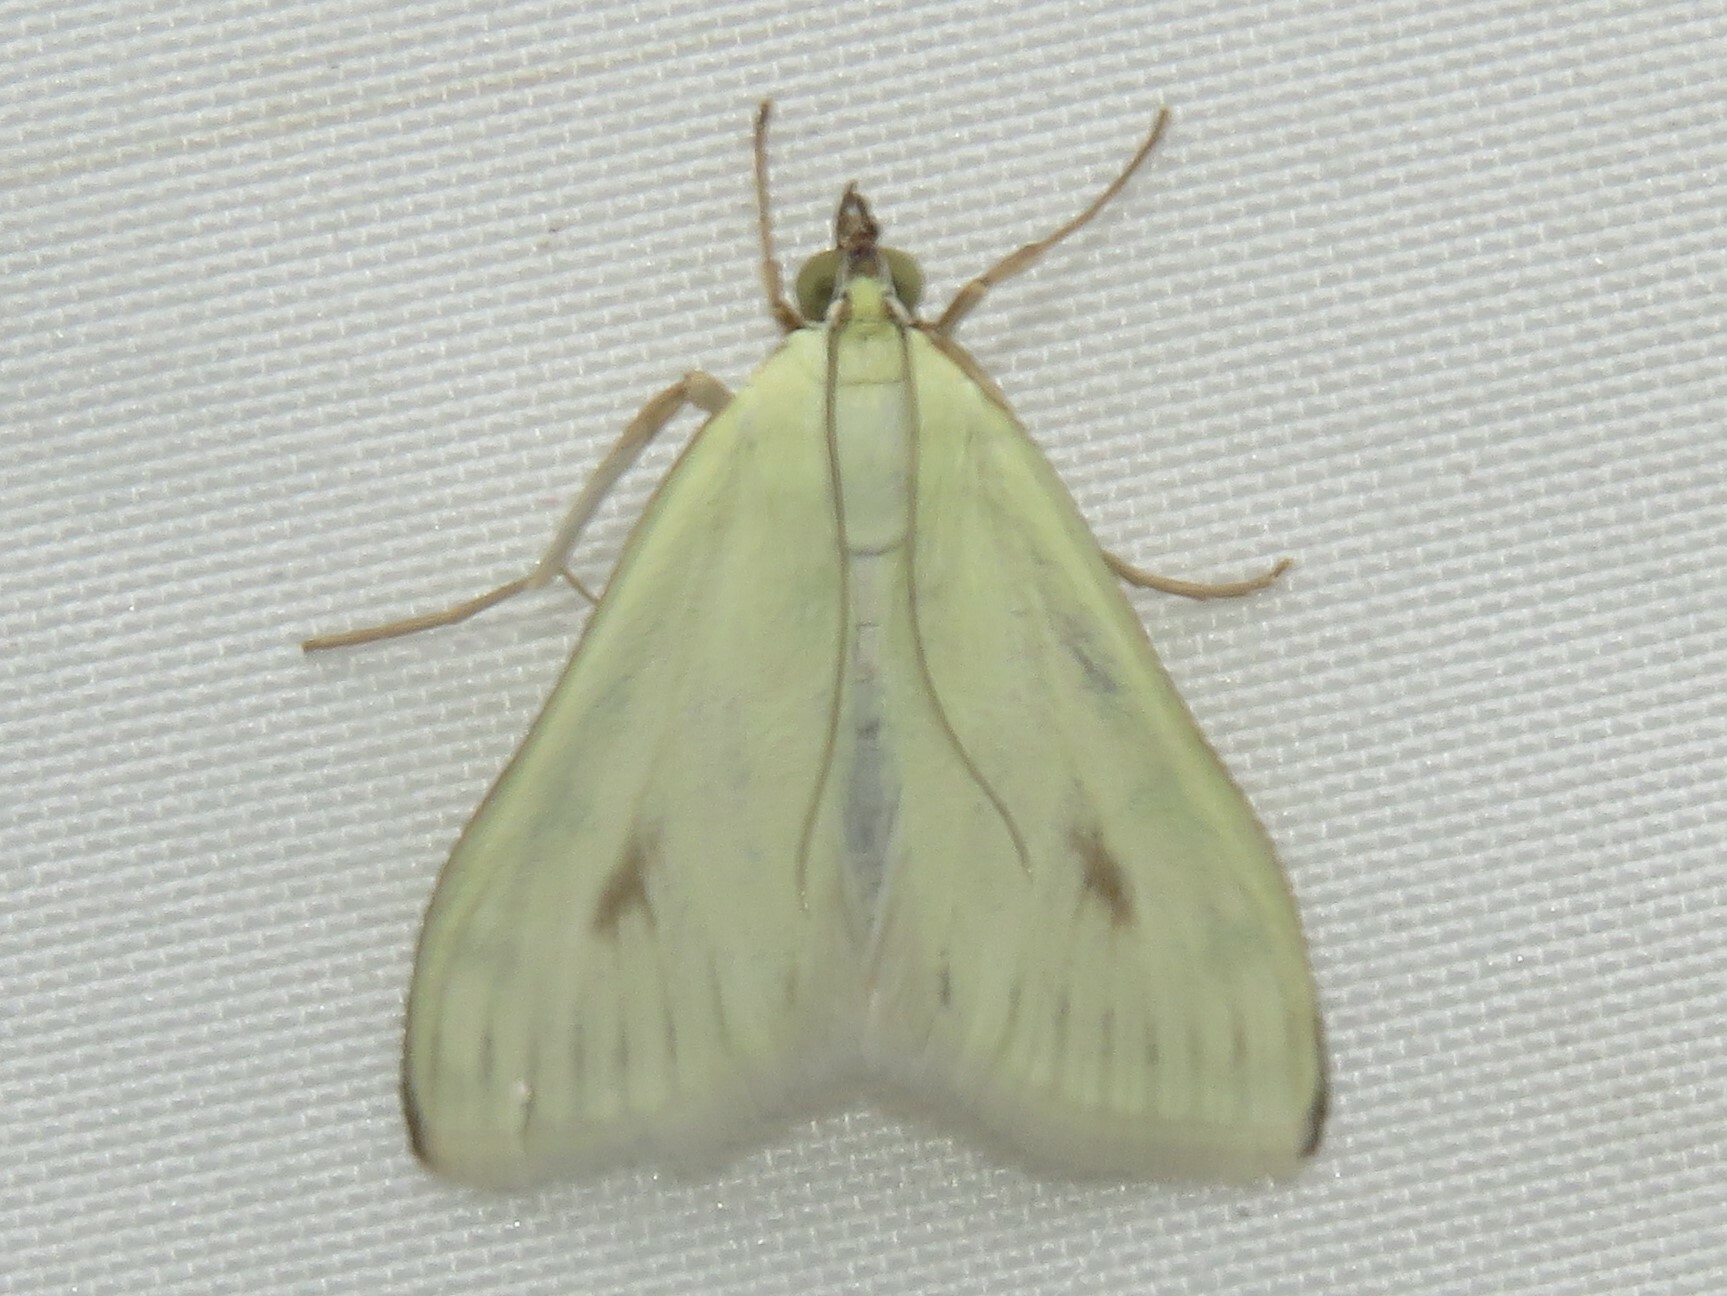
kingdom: Animalia
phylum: Arthropoda
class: Insecta
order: Lepidoptera
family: Crambidae
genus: Sitochroa
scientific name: Sitochroa palealis
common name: Greenish-yellow sitochroa moth
